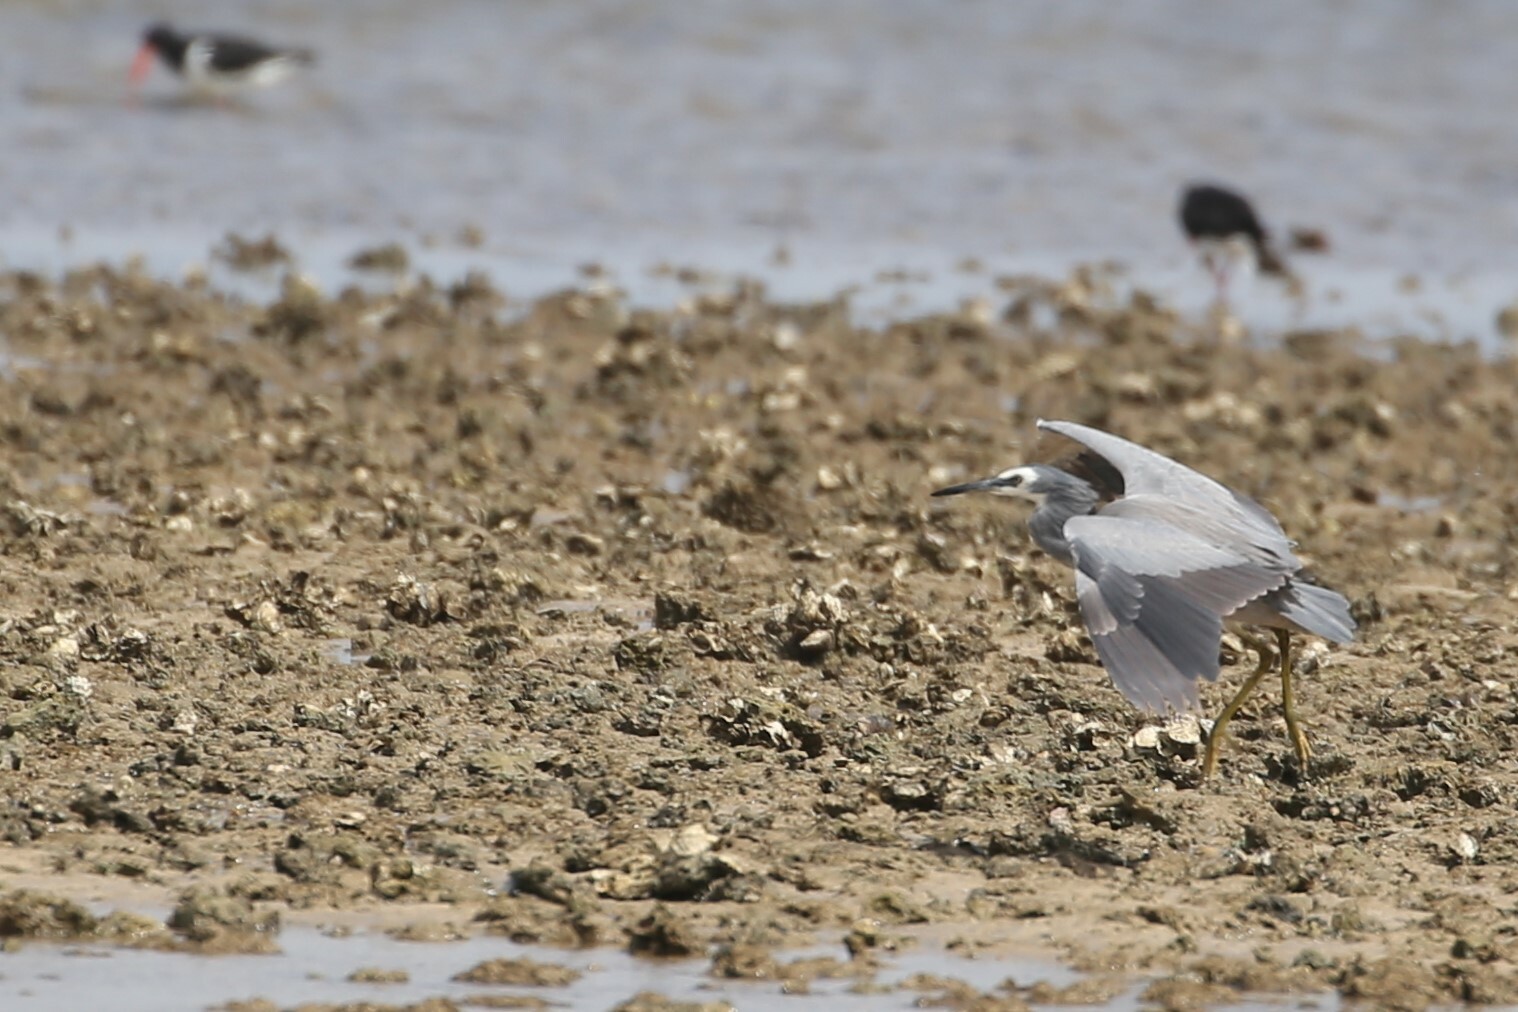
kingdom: Animalia
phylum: Chordata
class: Aves
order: Pelecaniformes
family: Ardeidae
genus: Egretta
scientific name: Egretta novaehollandiae
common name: White-faced heron
